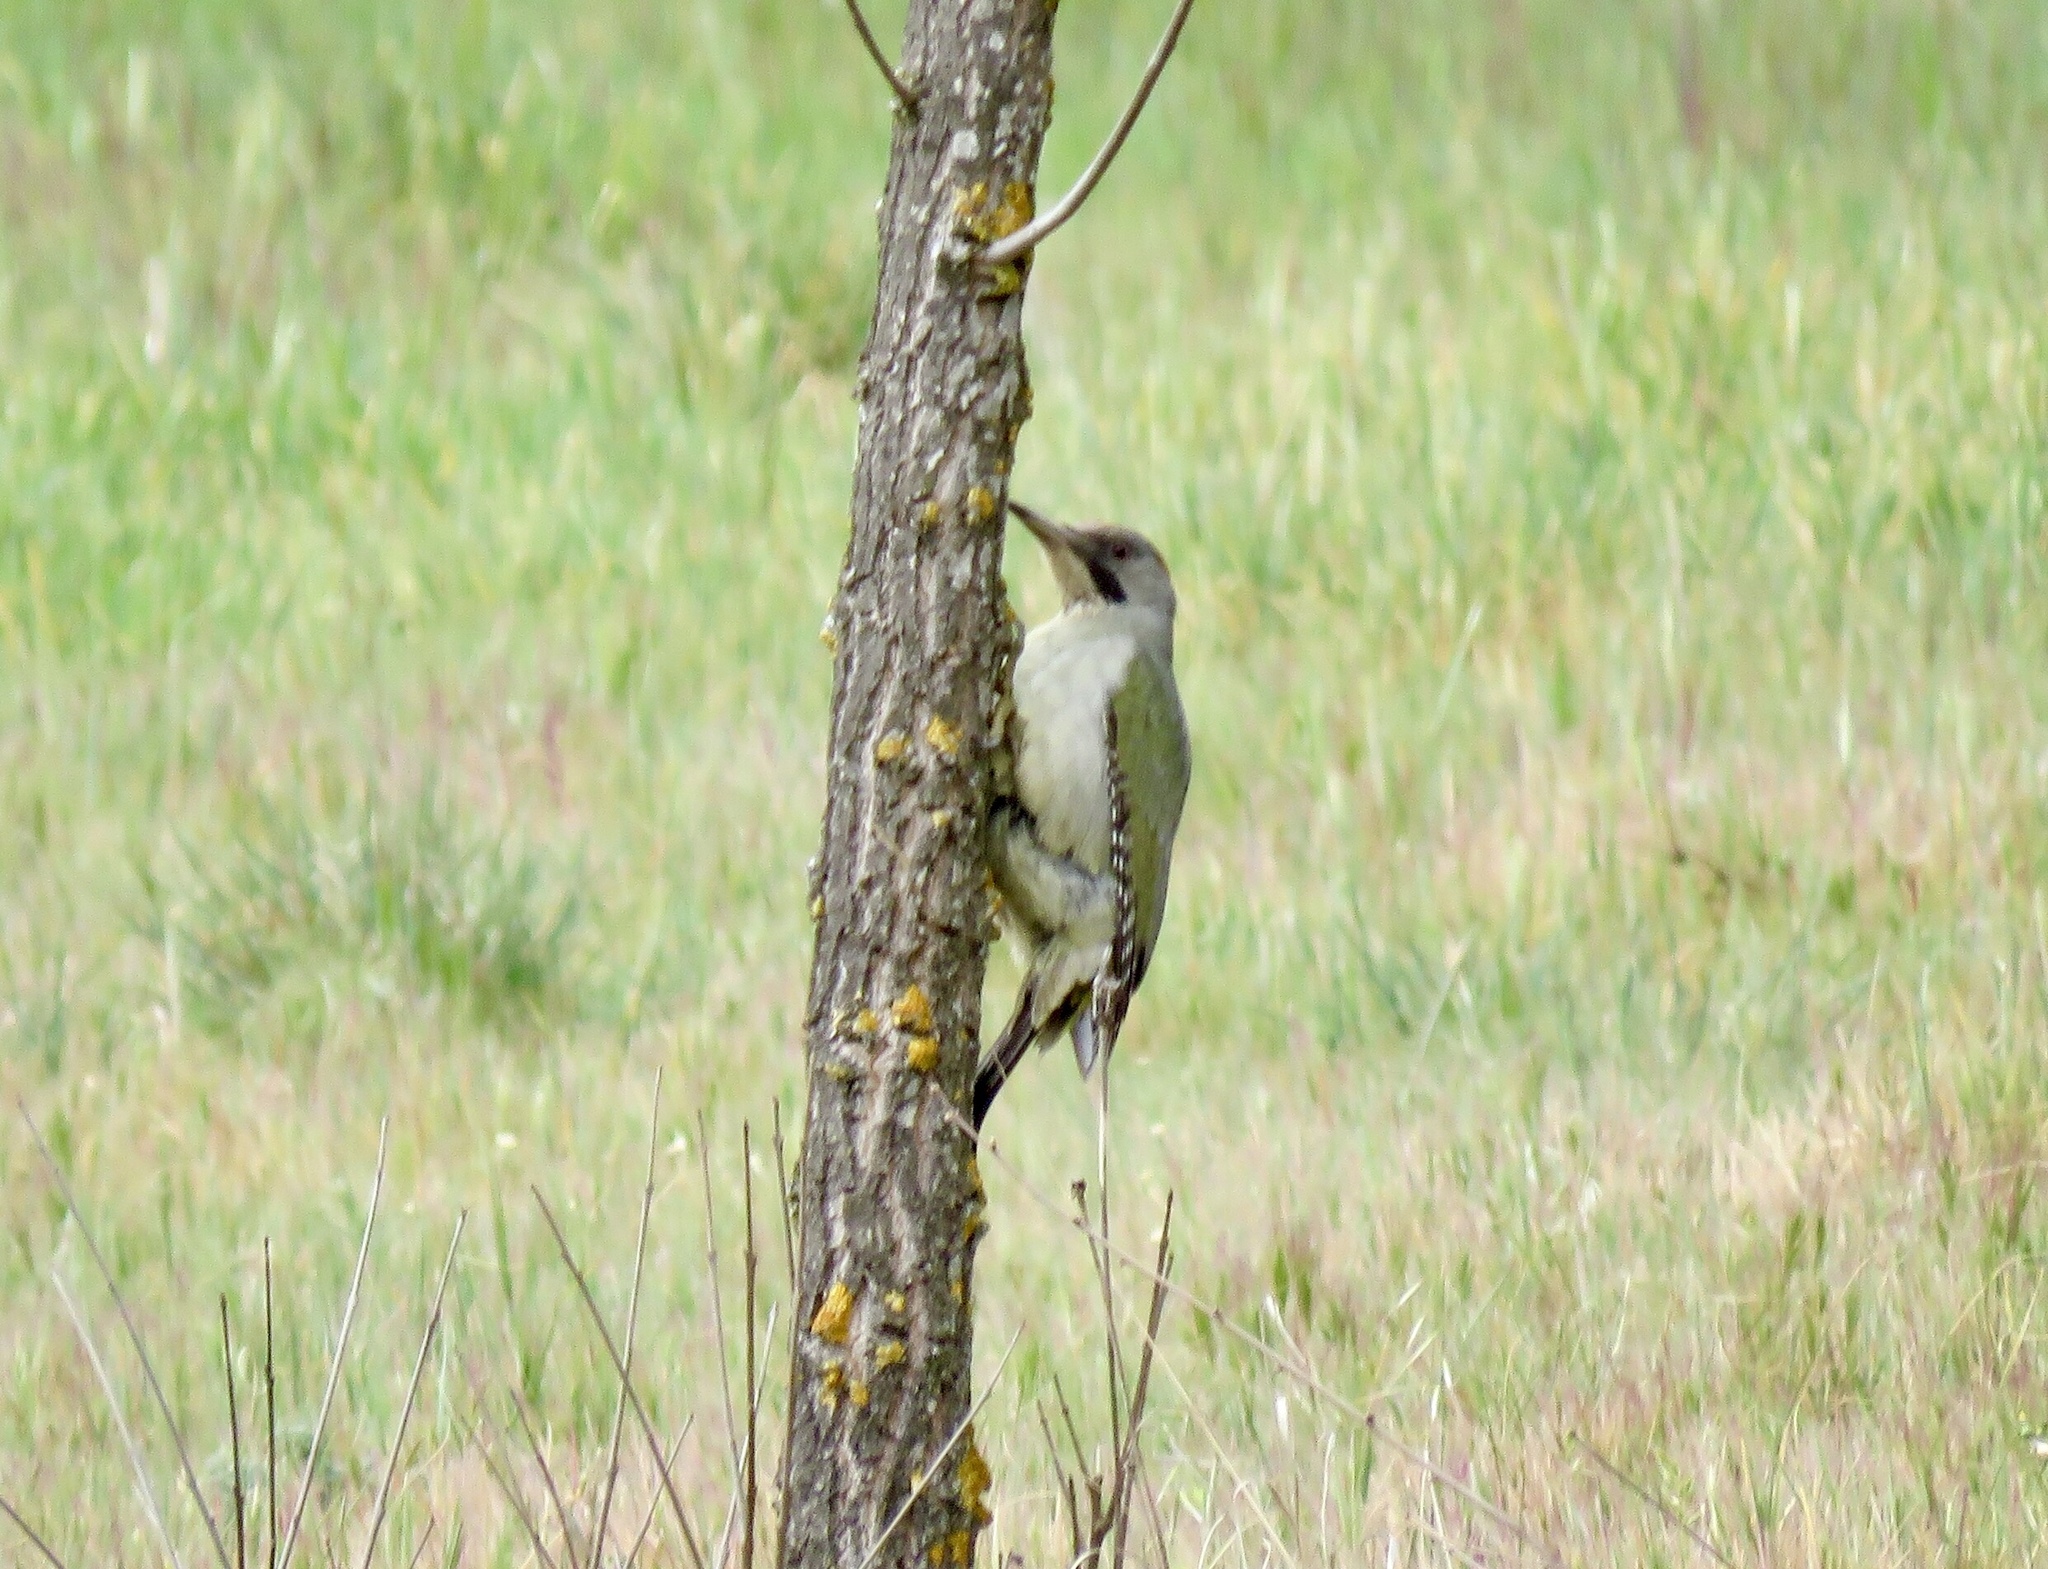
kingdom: Animalia
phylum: Chordata
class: Aves
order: Piciformes
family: Picidae
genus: Picus
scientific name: Picus sharpei
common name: Iberian green woodpecker
